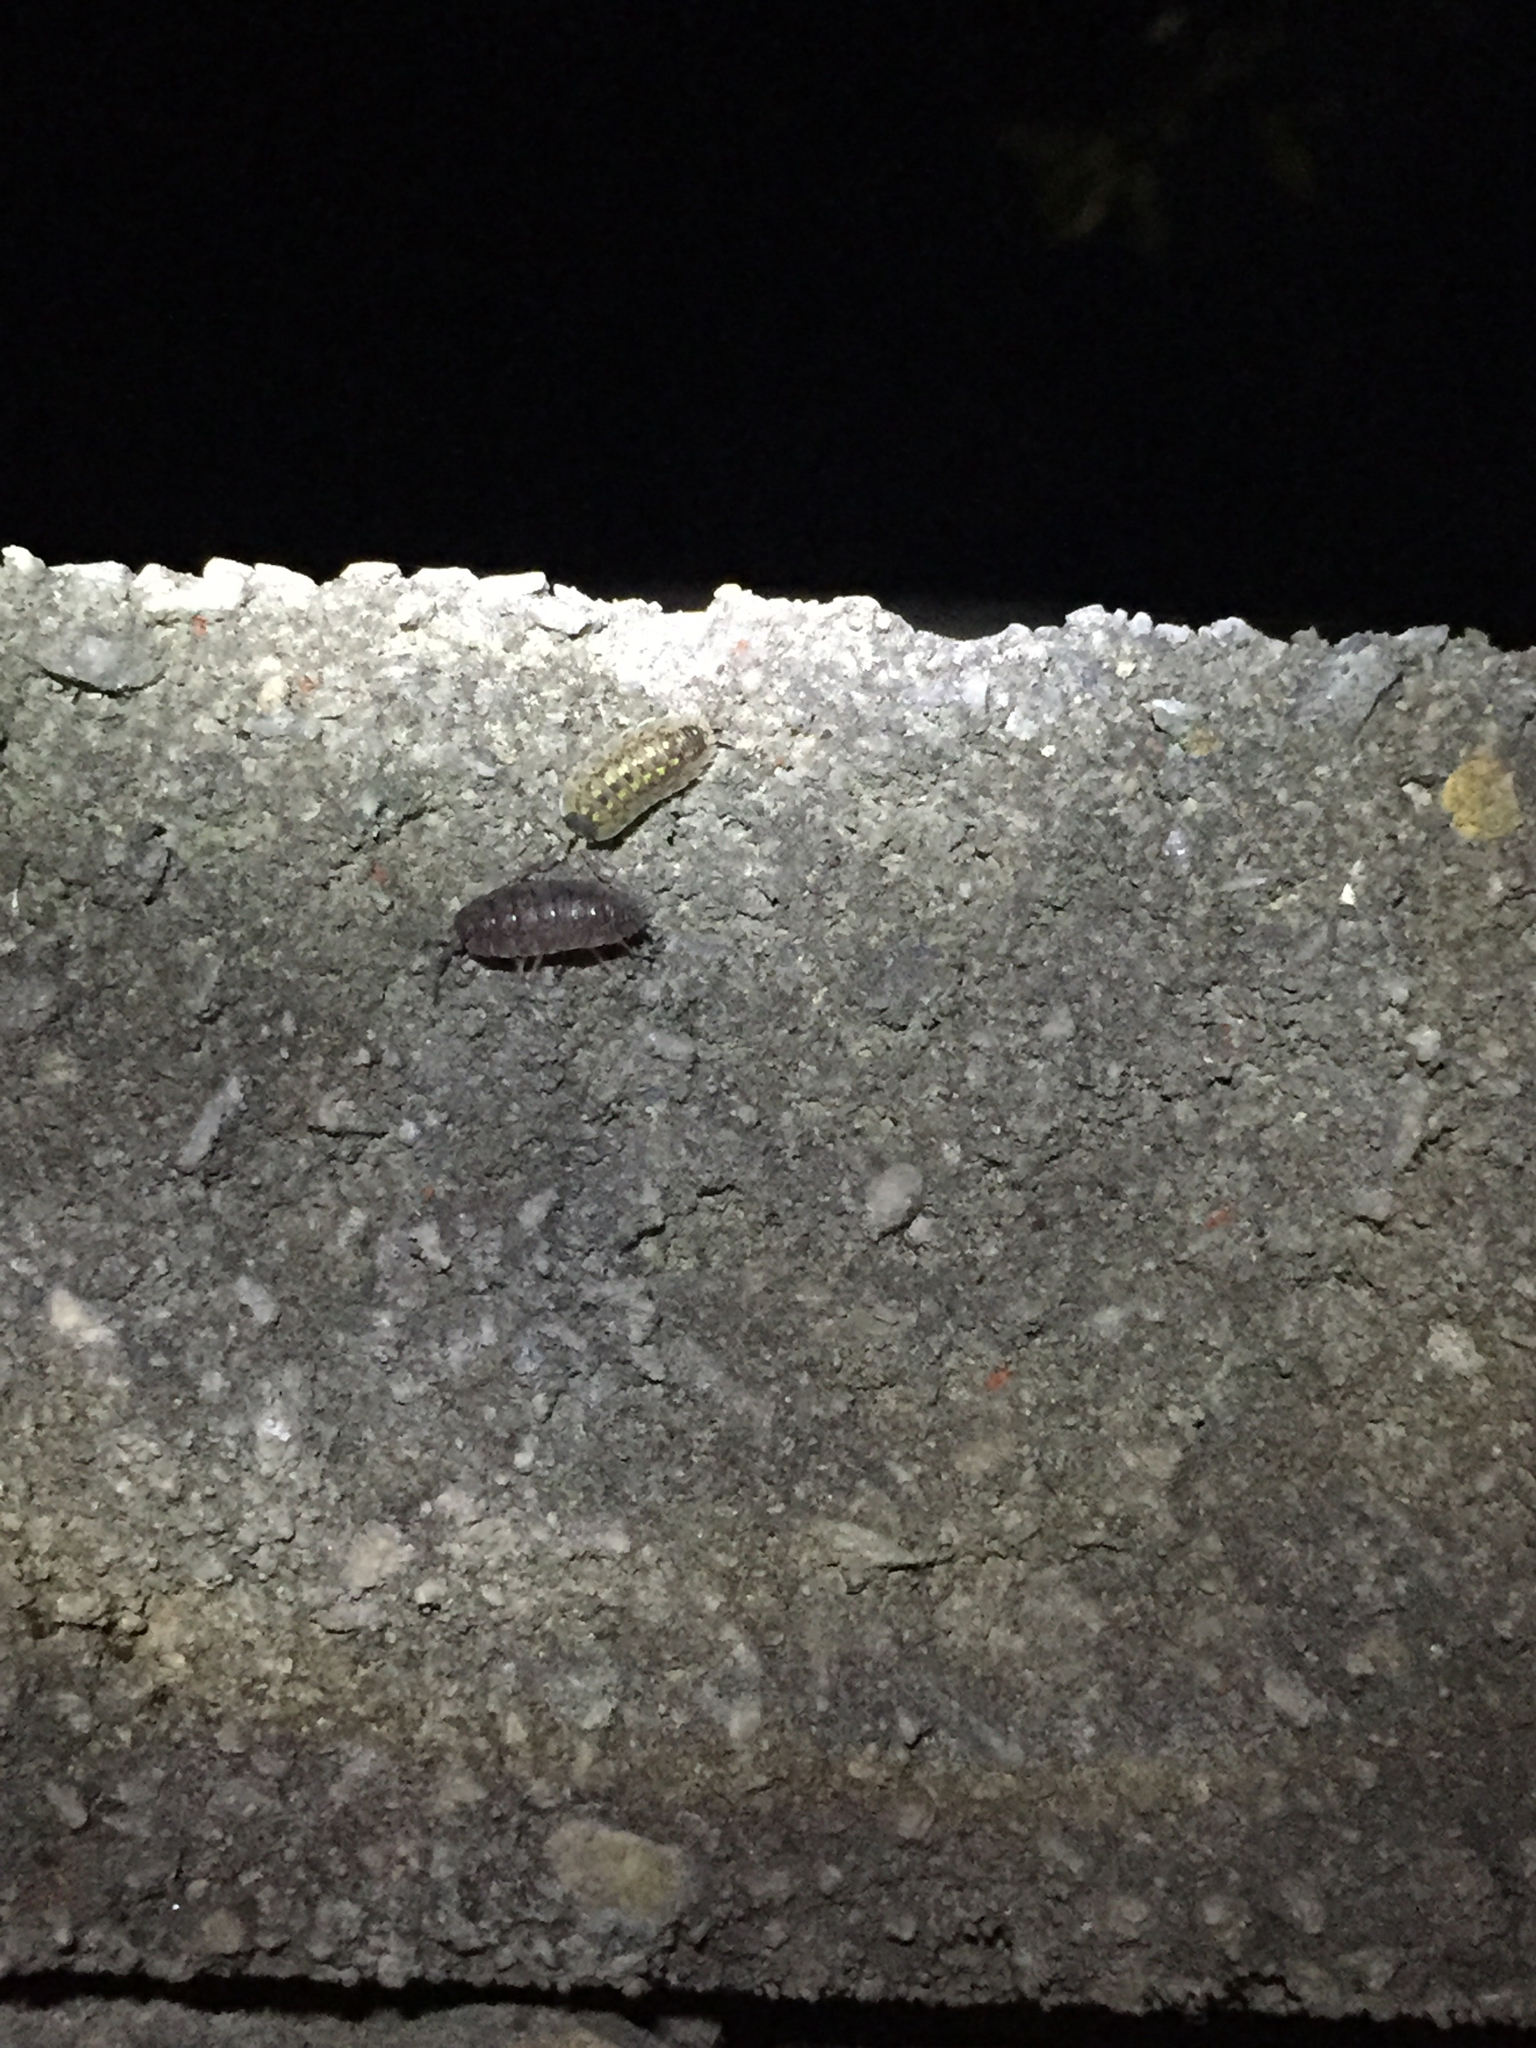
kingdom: Animalia
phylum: Arthropoda
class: Malacostraca
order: Isopoda
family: Porcellionidae
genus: Porcellio
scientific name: Porcellio spinicornis
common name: Painted woodlouse
